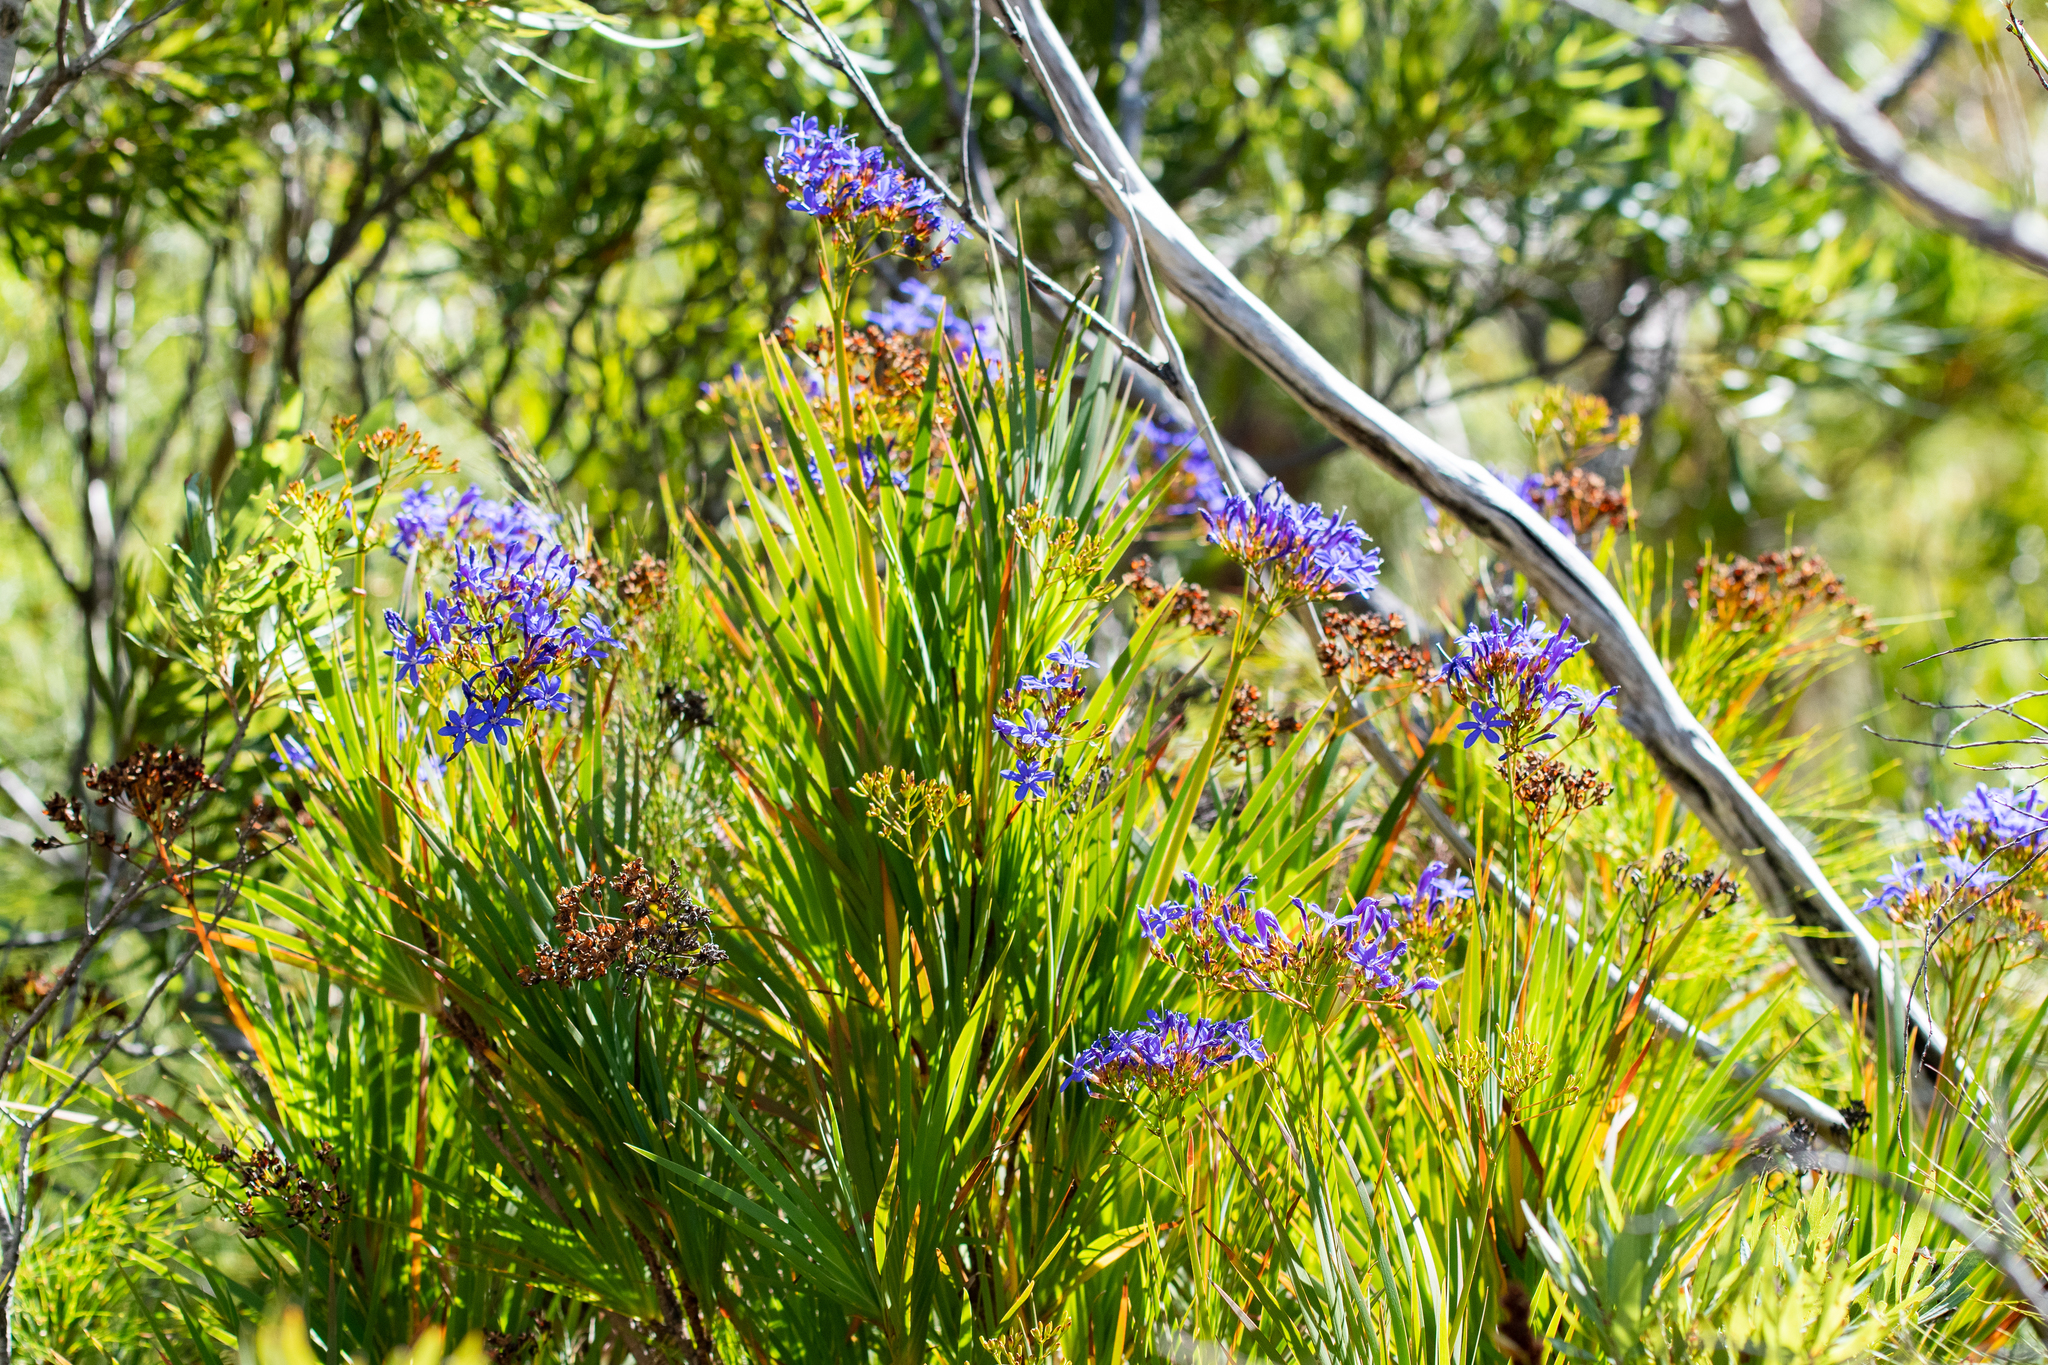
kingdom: Plantae
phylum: Tracheophyta
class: Liliopsida
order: Asparagales
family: Iridaceae
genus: Nivenia
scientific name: Nivenia corymbosa
